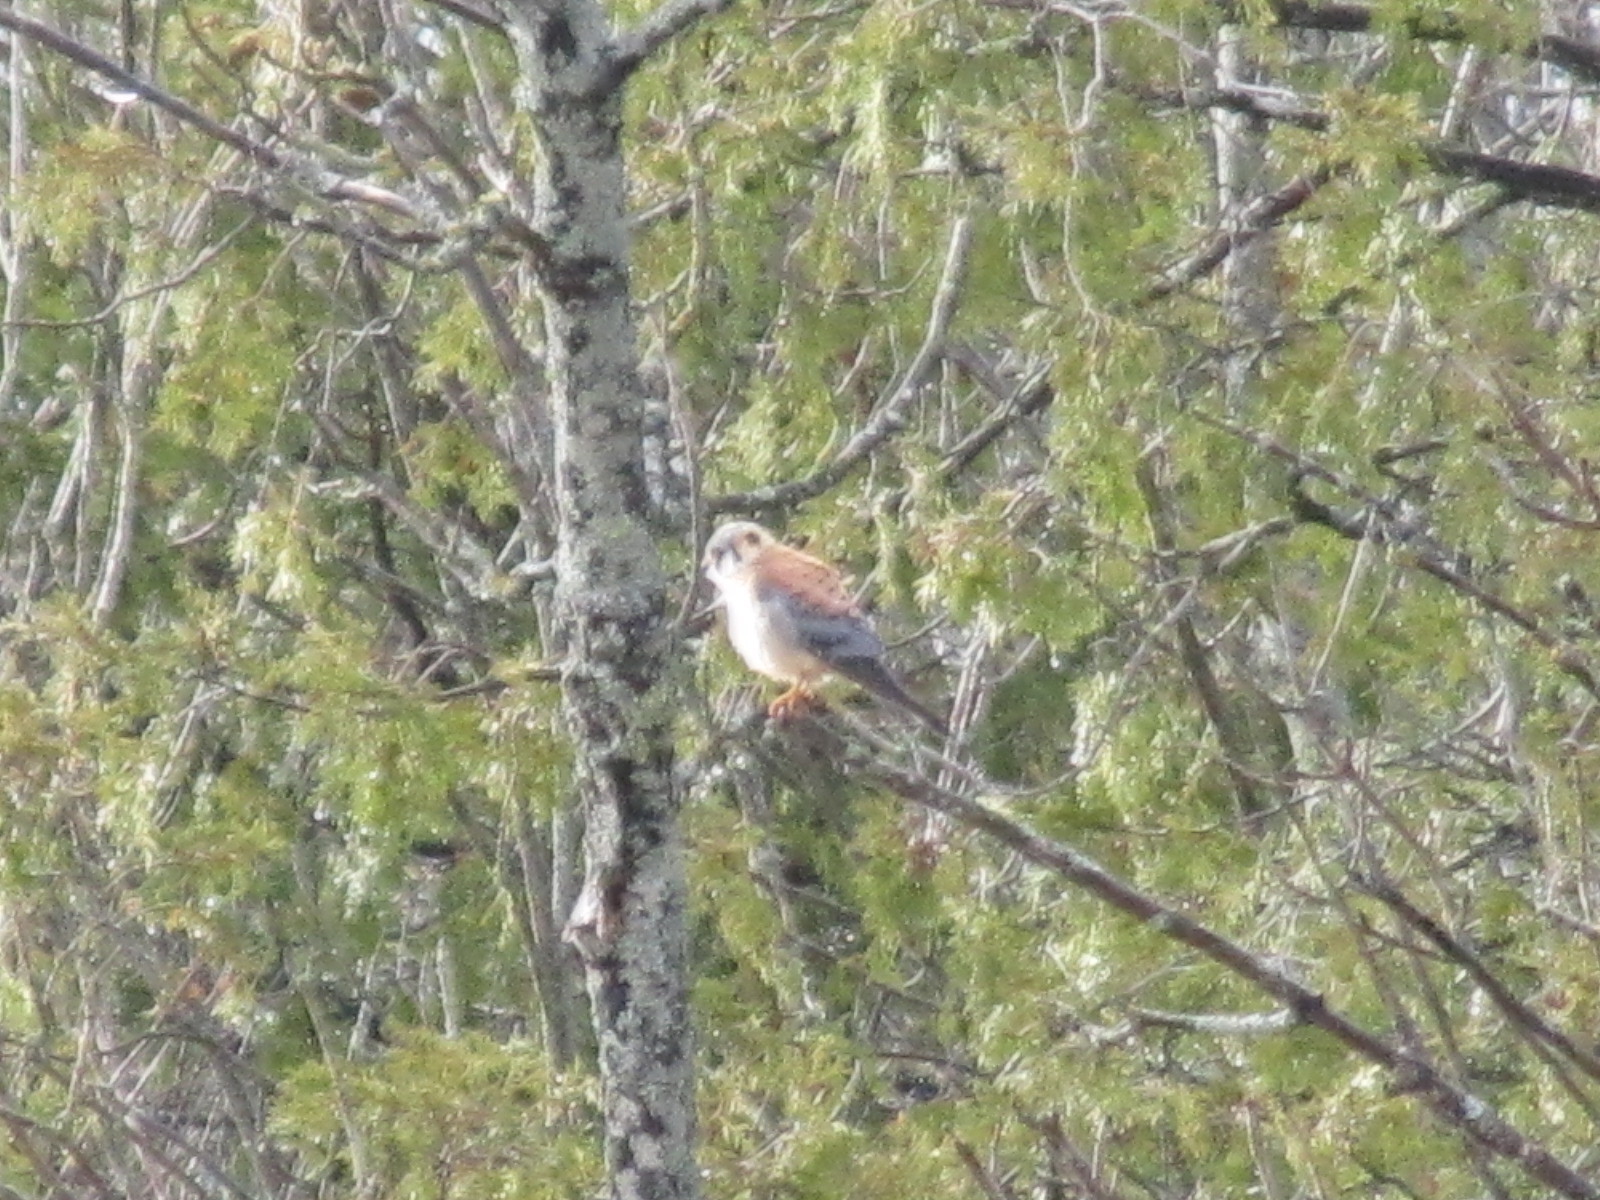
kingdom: Animalia
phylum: Chordata
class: Aves
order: Falconiformes
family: Falconidae
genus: Falco
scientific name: Falco sparverius
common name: American kestrel
